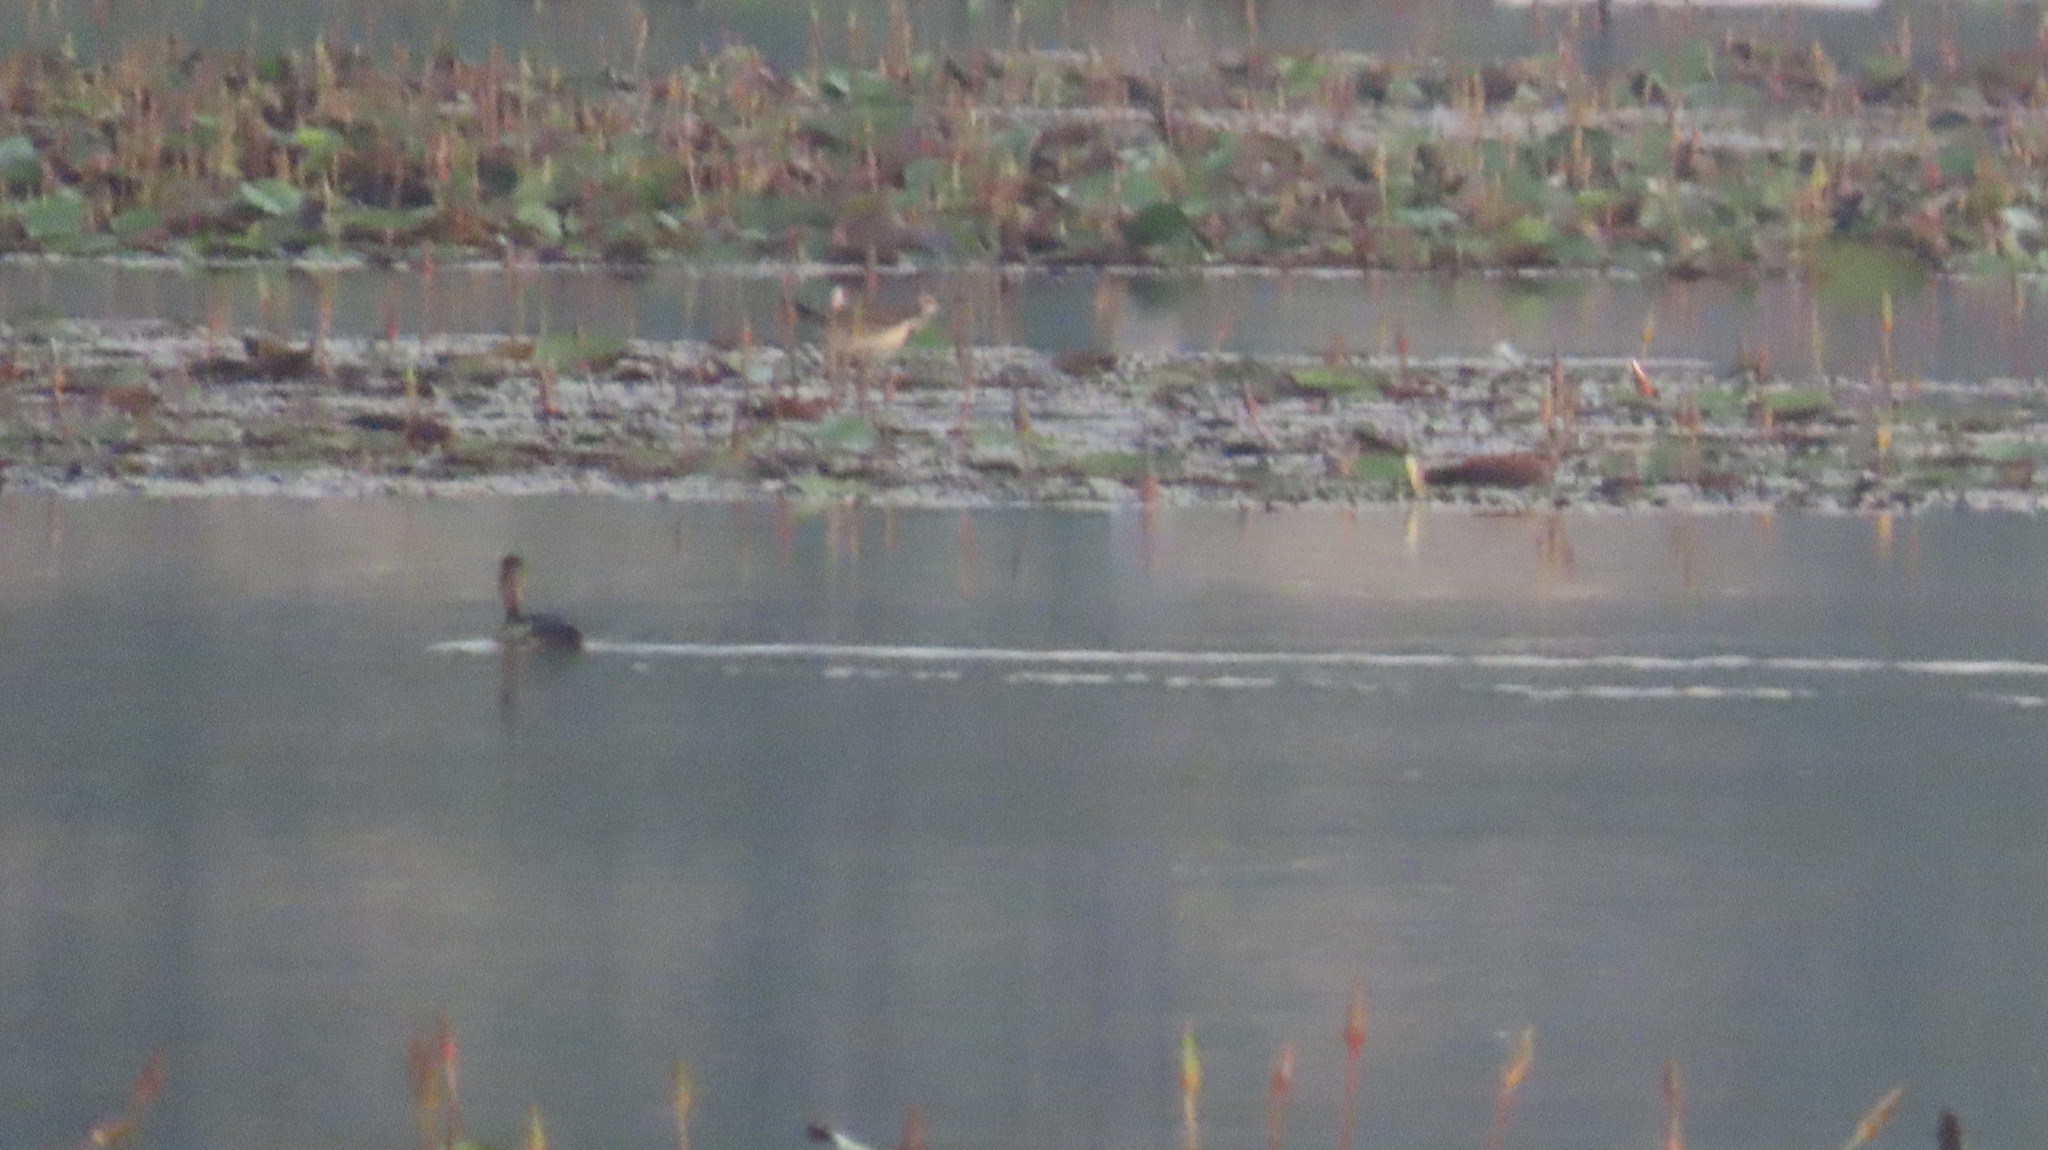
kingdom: Animalia
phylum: Chordata
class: Aves
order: Anseriformes
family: Anatidae
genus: Dendrocygna
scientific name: Dendrocygna javanica
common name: Lesser whistling-duck
